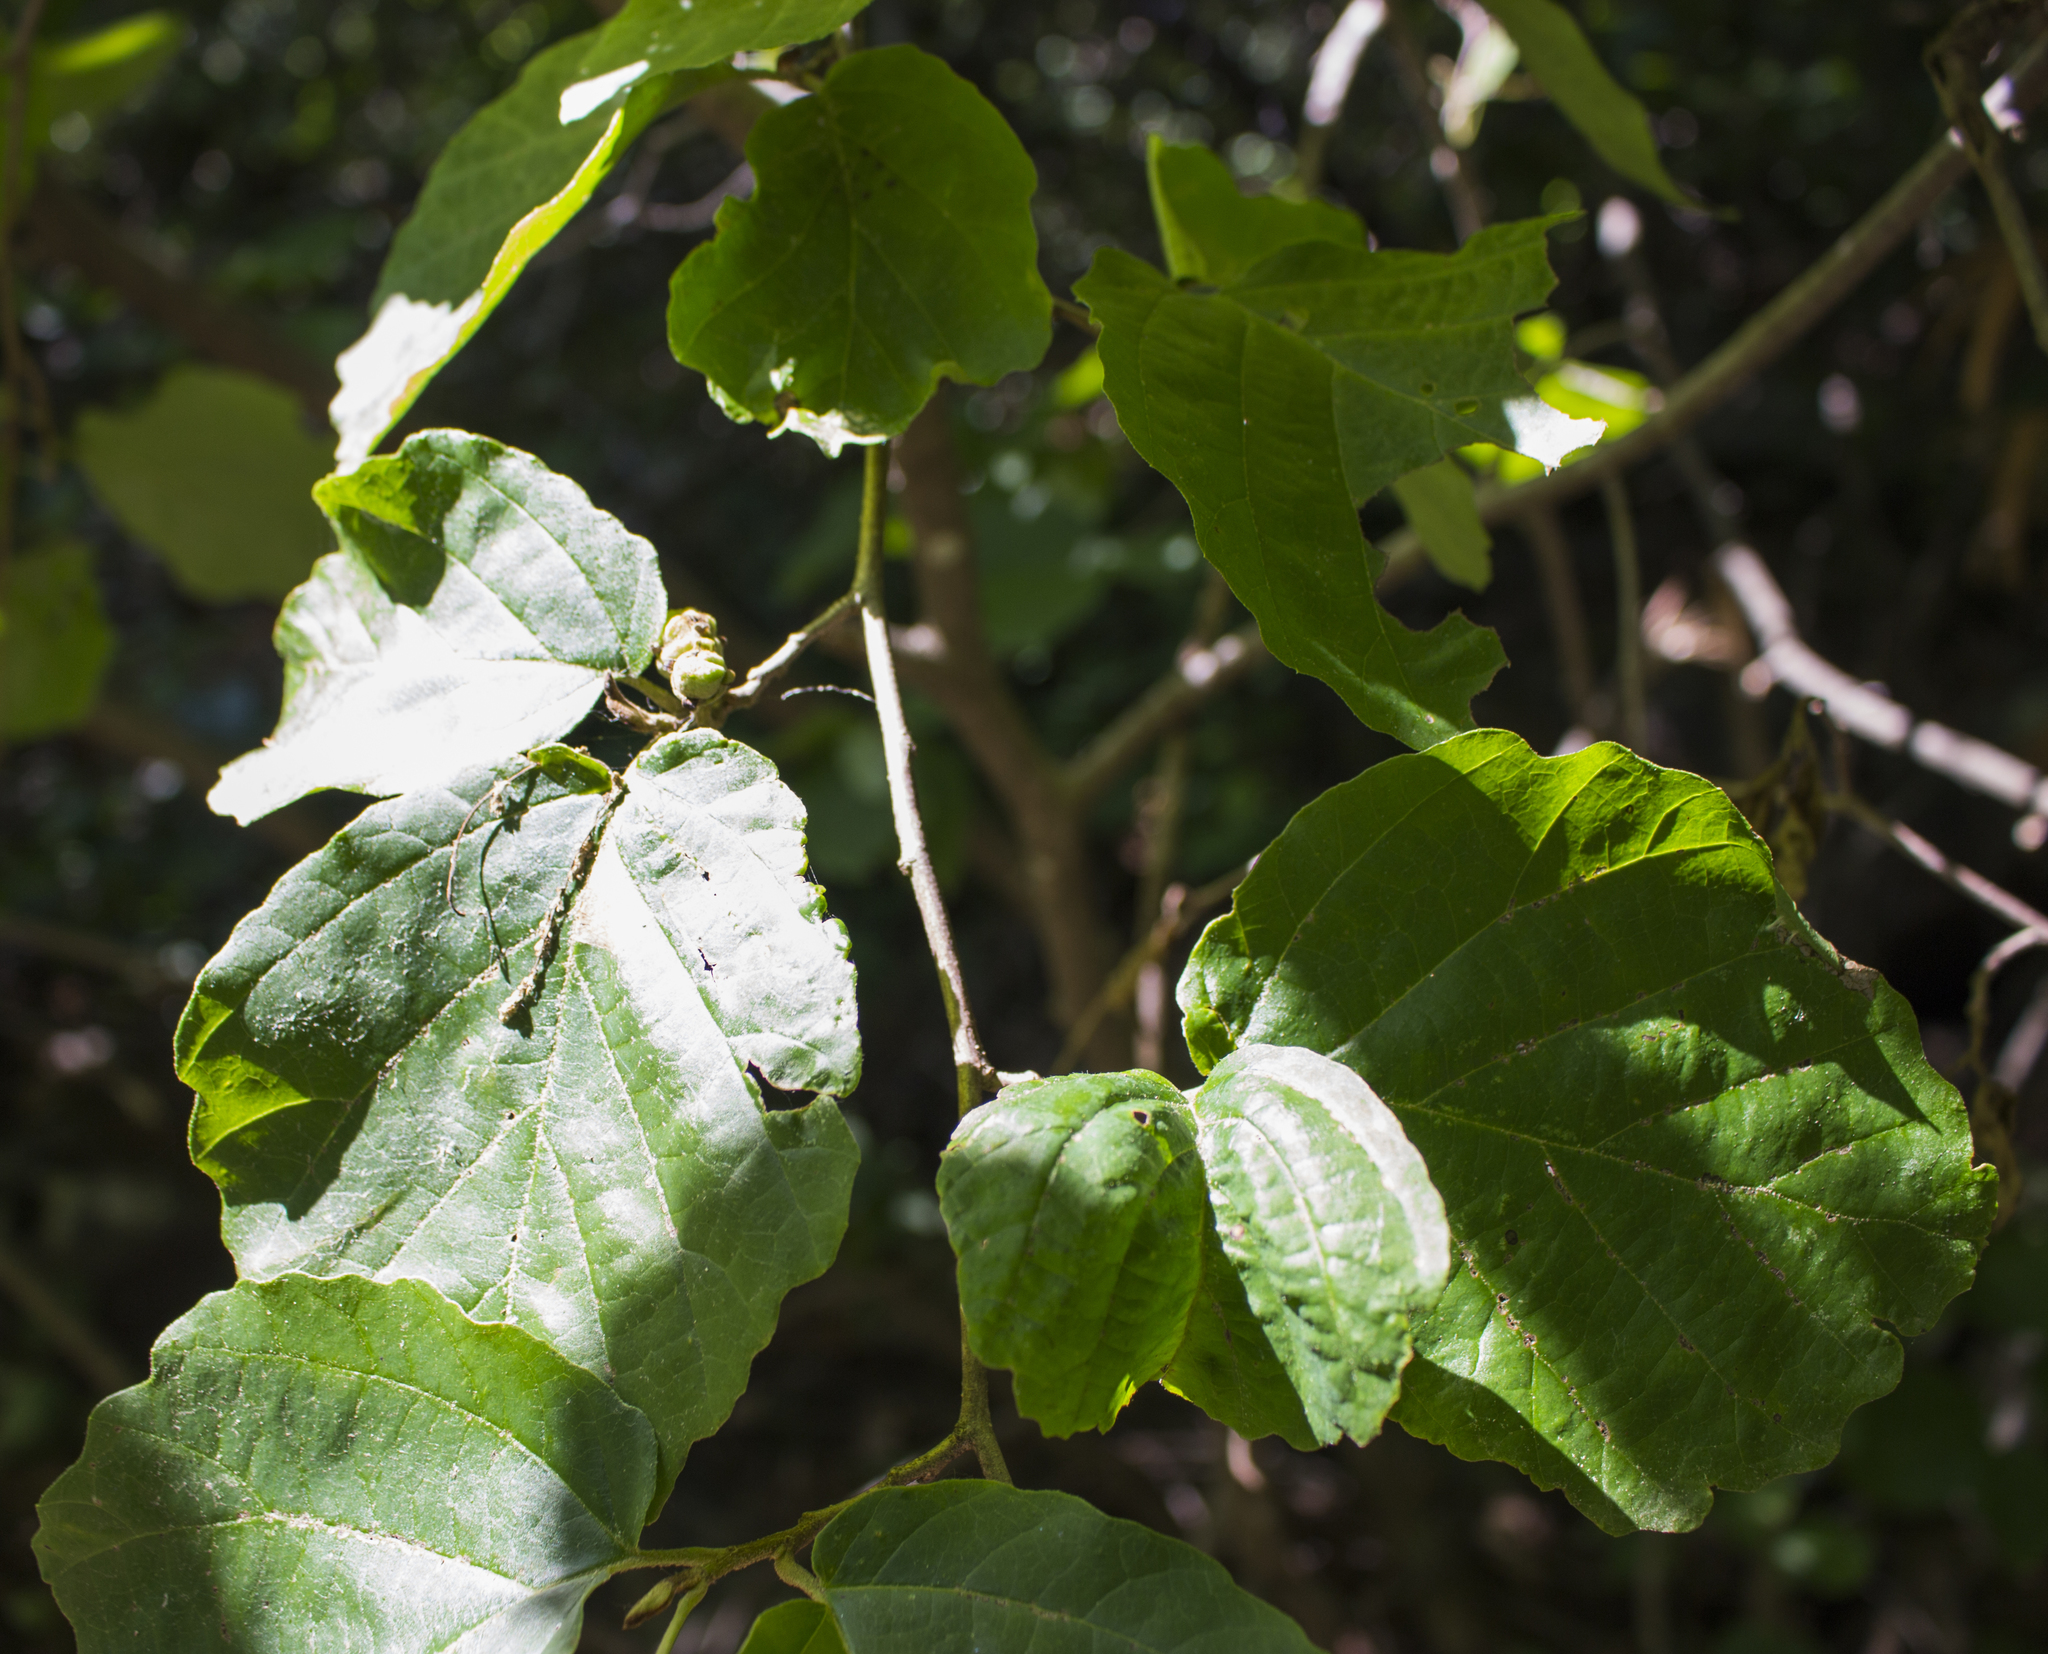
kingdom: Plantae
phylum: Tracheophyta
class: Magnoliopsida
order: Saxifragales
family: Hamamelidaceae
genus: Hamamelis
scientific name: Hamamelis virginiana
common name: Witch-hazel
